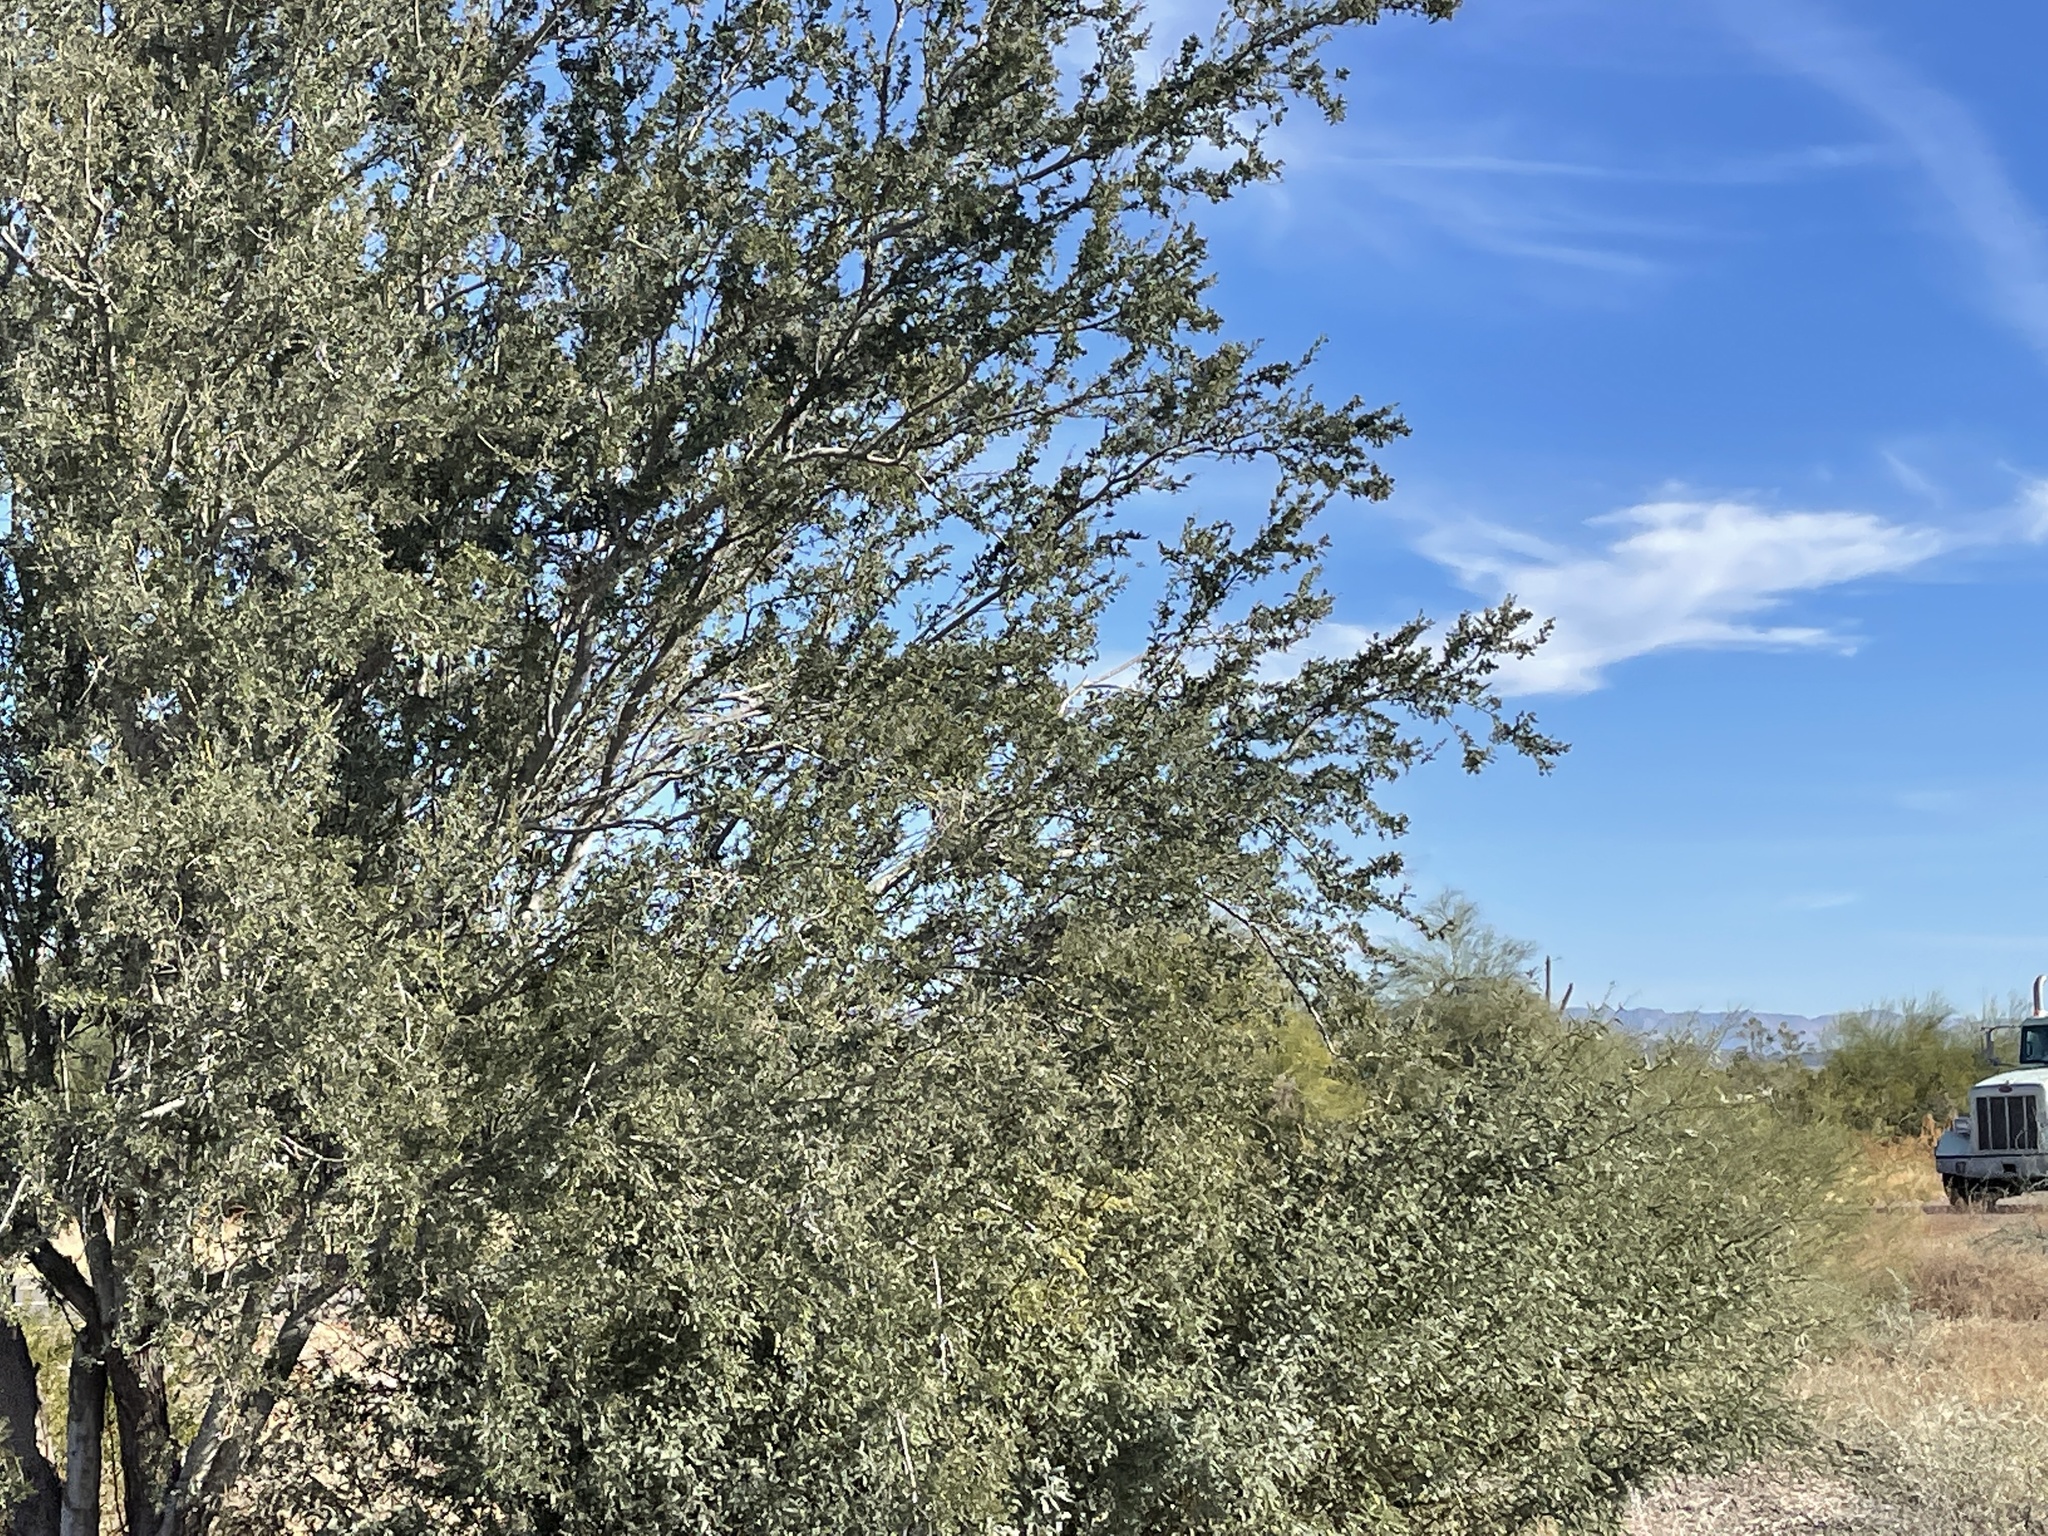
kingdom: Plantae
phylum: Tracheophyta
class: Magnoliopsida
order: Fabales
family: Fabaceae
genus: Olneya
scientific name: Olneya tesota
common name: Desert ironwood
